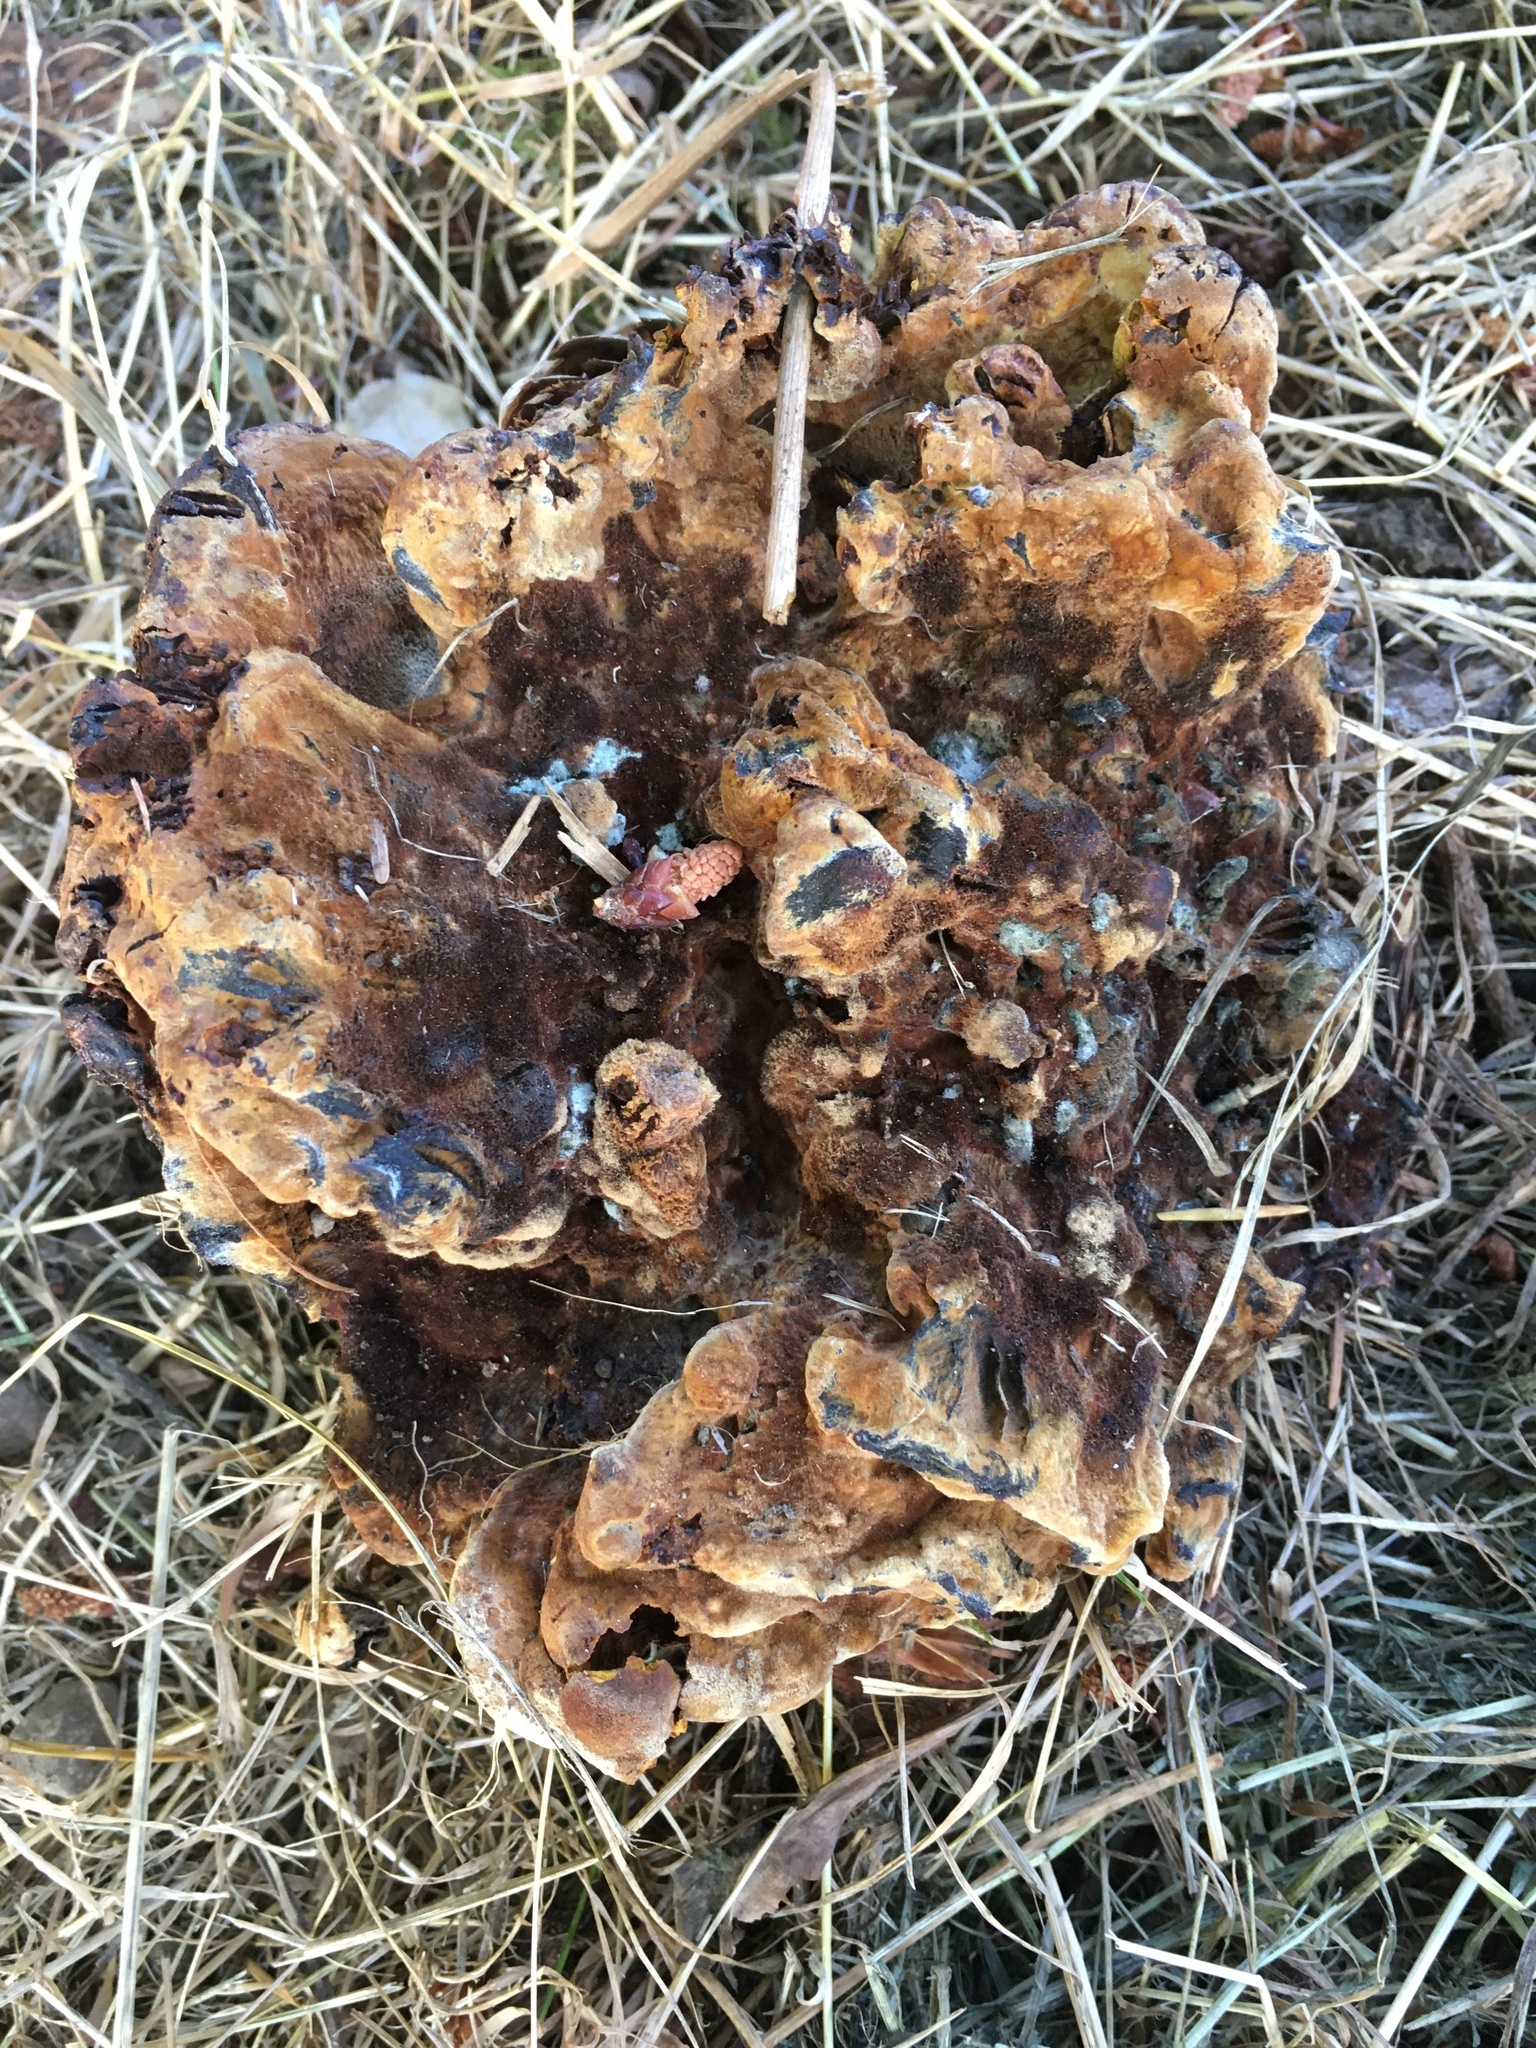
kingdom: Fungi
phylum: Basidiomycota
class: Agaricomycetes
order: Polyporales
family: Laetiporaceae
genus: Phaeolus
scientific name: Phaeolus schweinitzii
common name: Dyer's mazegill
